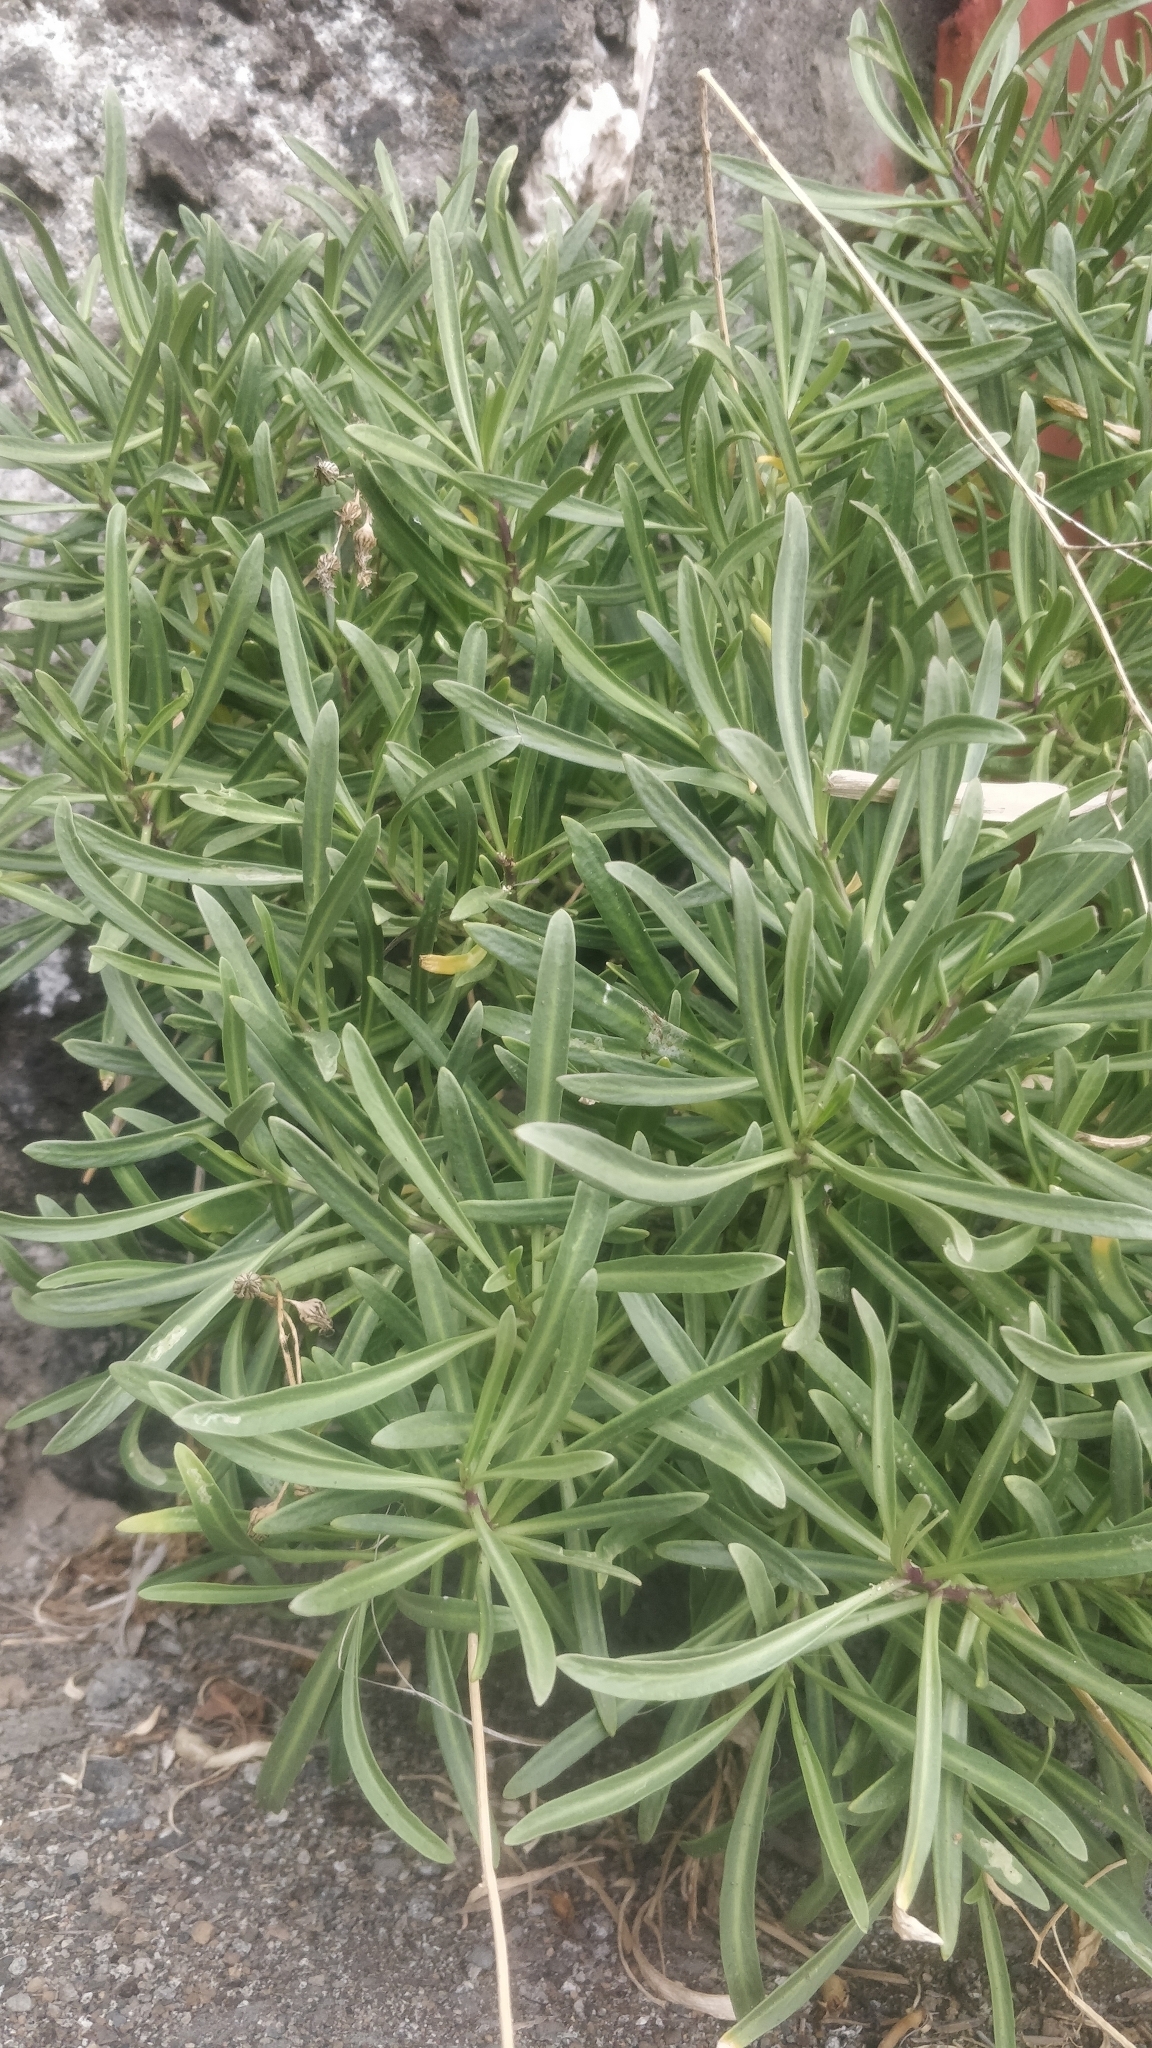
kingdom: Plantae
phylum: Tracheophyta
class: Magnoliopsida
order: Brassicales
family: Brassicaceae
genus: Sinapidendron
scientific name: Sinapidendron angustifolium
